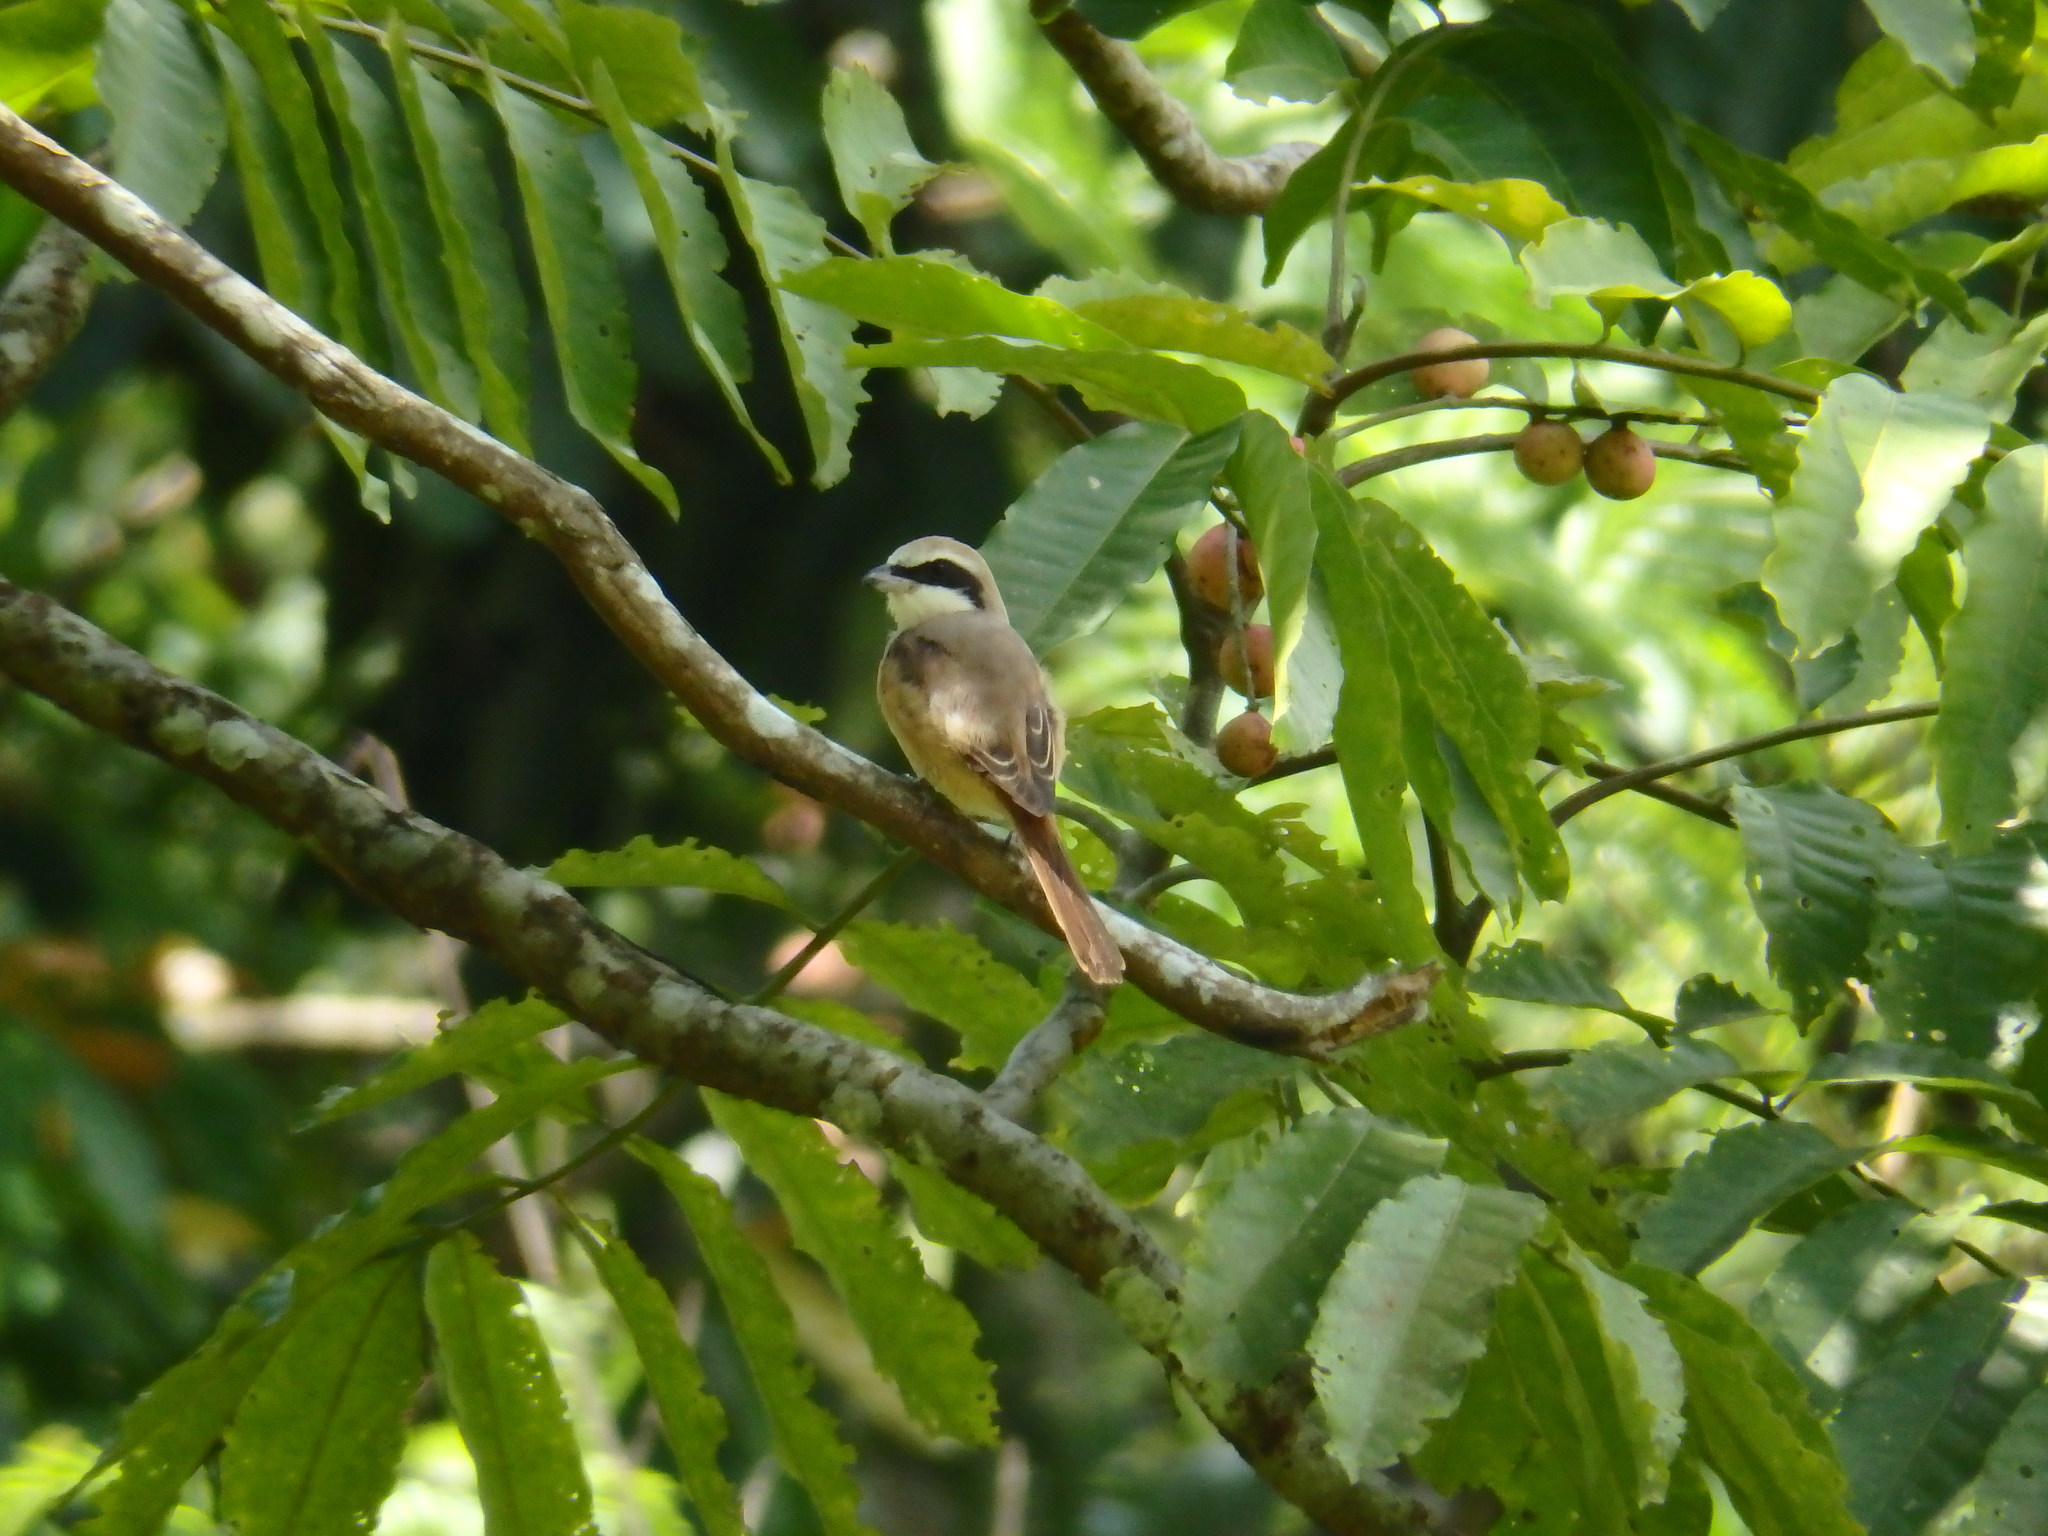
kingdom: Animalia
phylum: Chordata
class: Aves
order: Passeriformes
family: Laniidae
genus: Lanius
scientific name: Lanius cristatus
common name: Brown shrike
